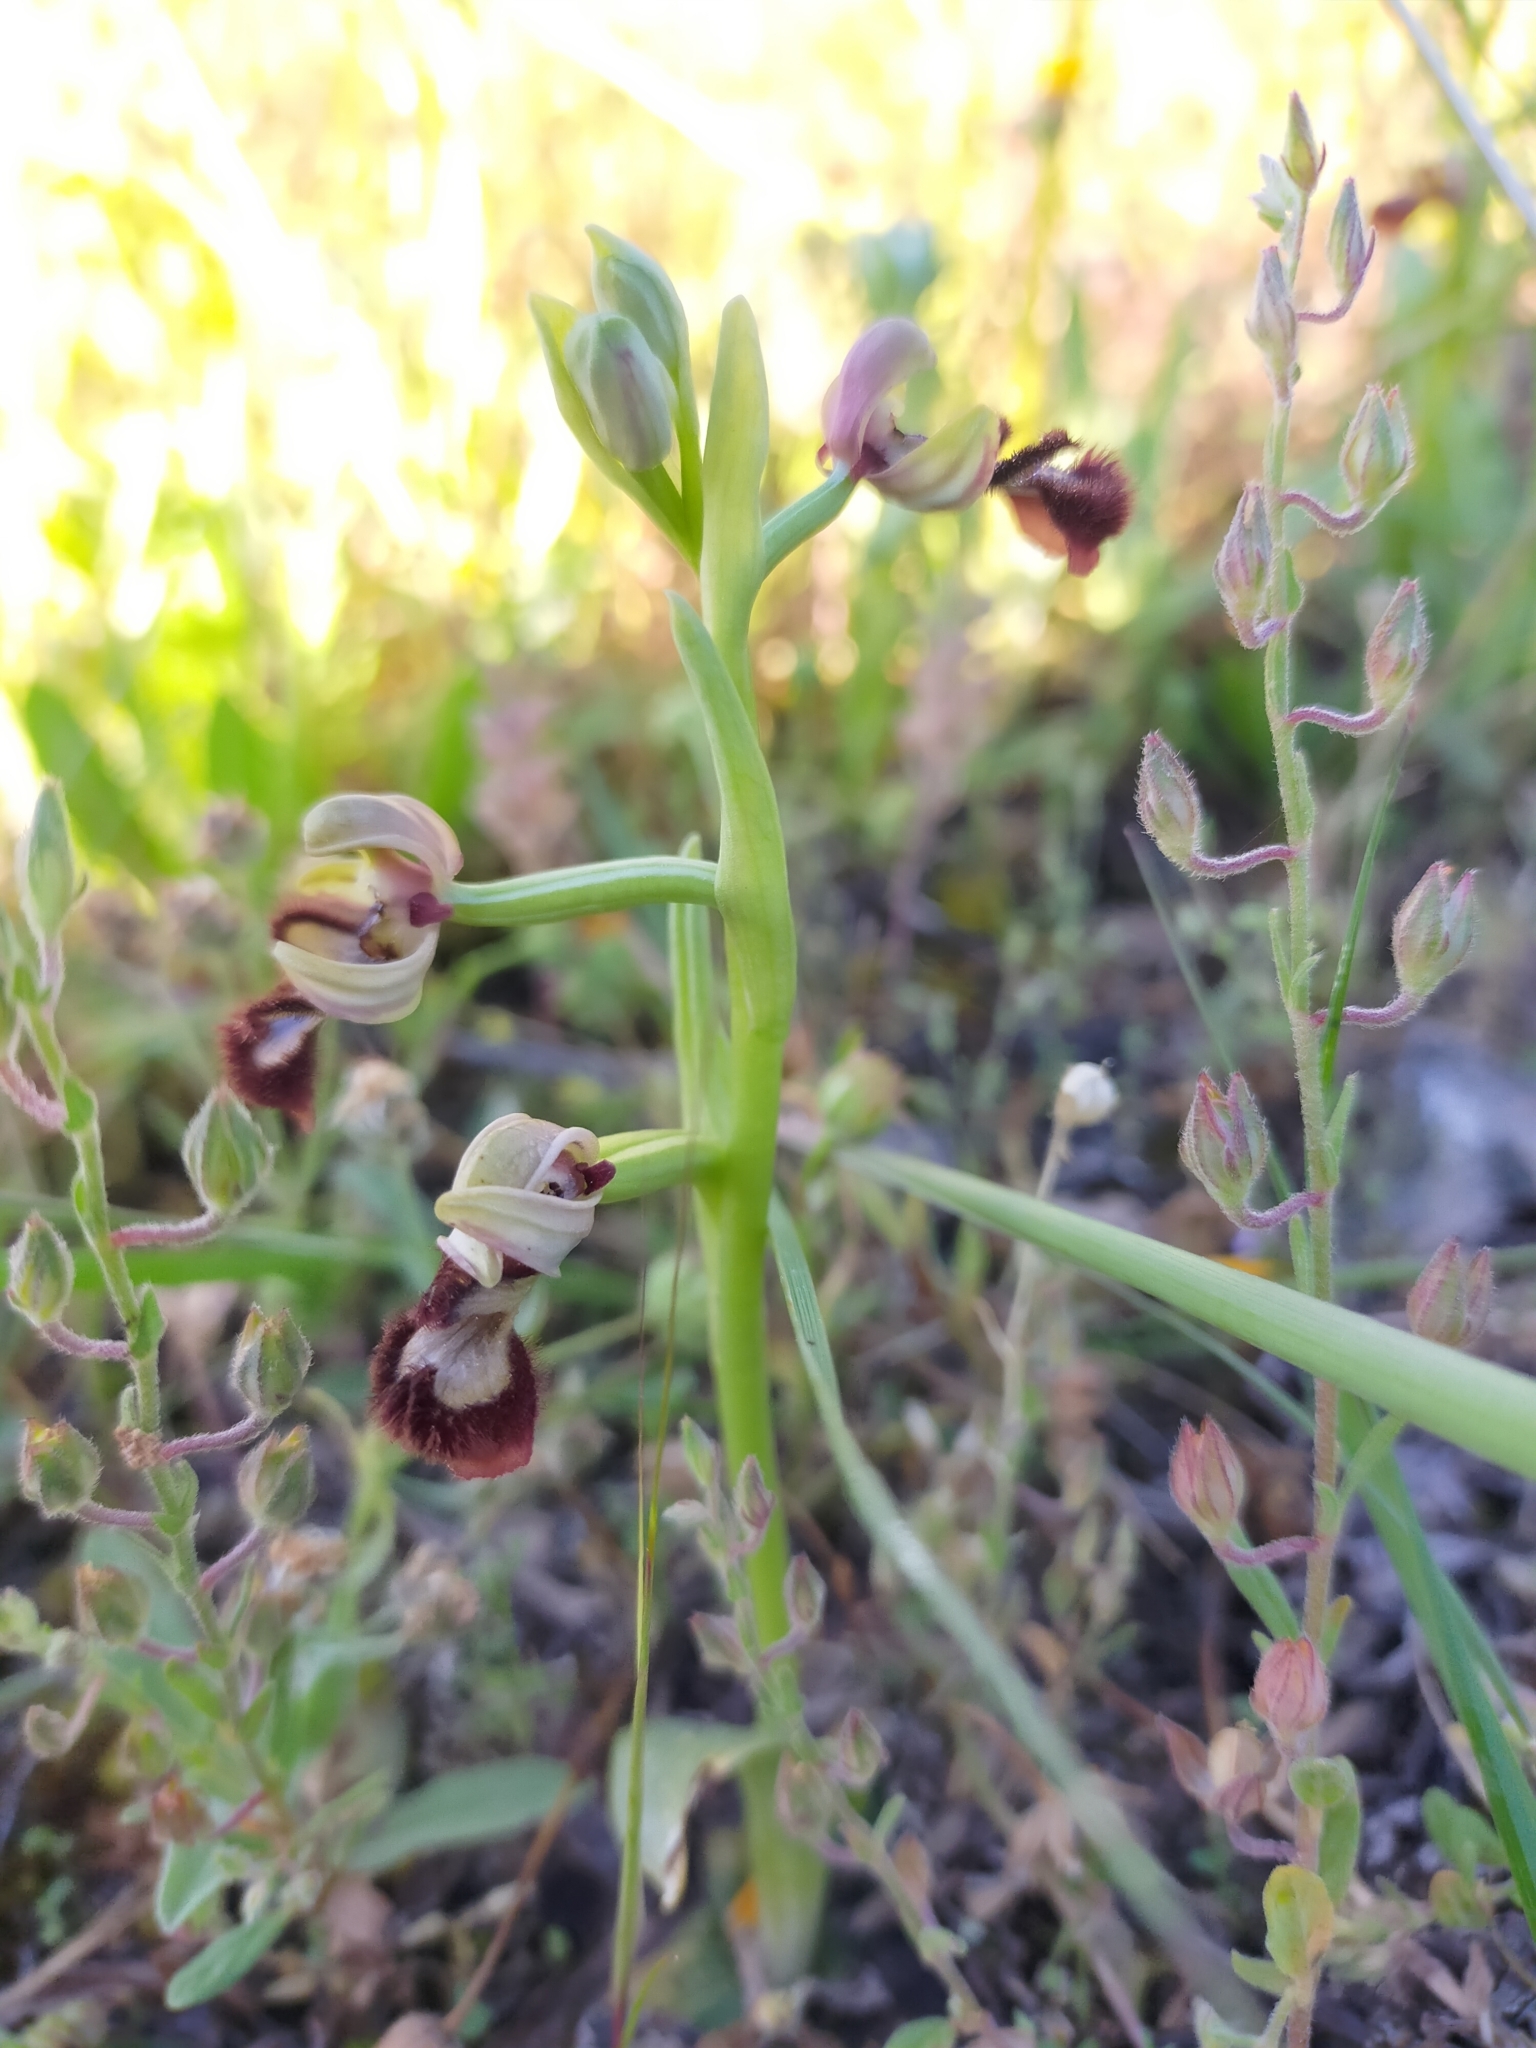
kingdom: Plantae
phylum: Tracheophyta
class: Liliopsida
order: Asparagales
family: Orchidaceae
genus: Ophrys
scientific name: Ophrys speculum
